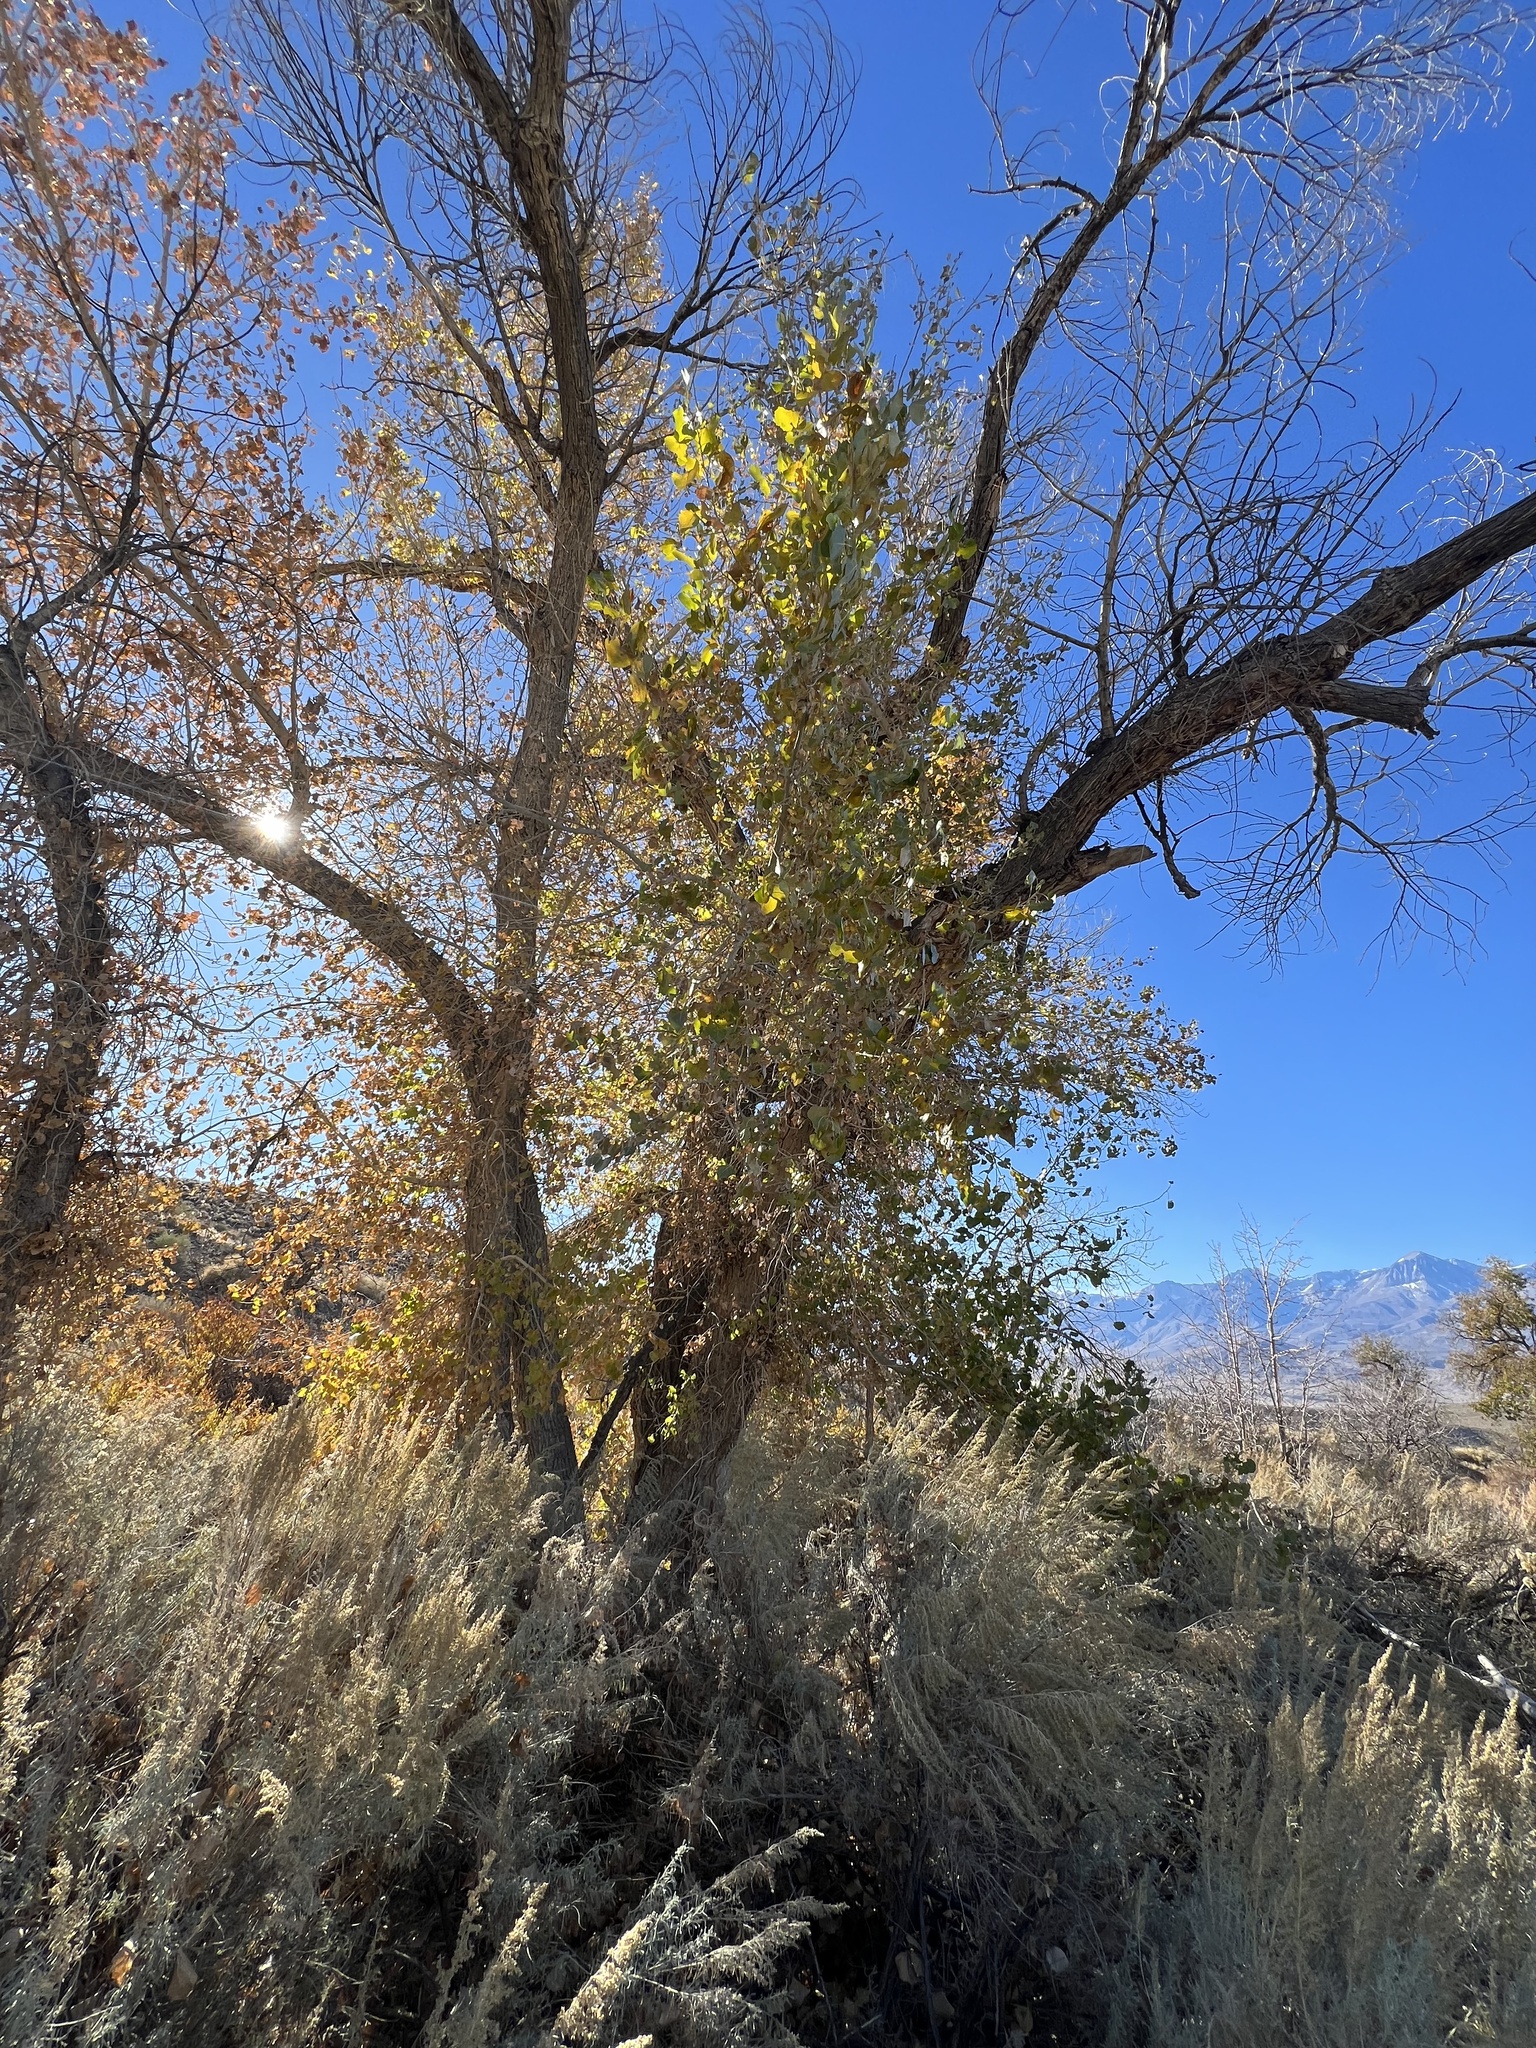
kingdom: Plantae
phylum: Tracheophyta
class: Magnoliopsida
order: Malpighiales
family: Salicaceae
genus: Populus
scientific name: Populus fremontii
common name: Fremont's cottonwood
